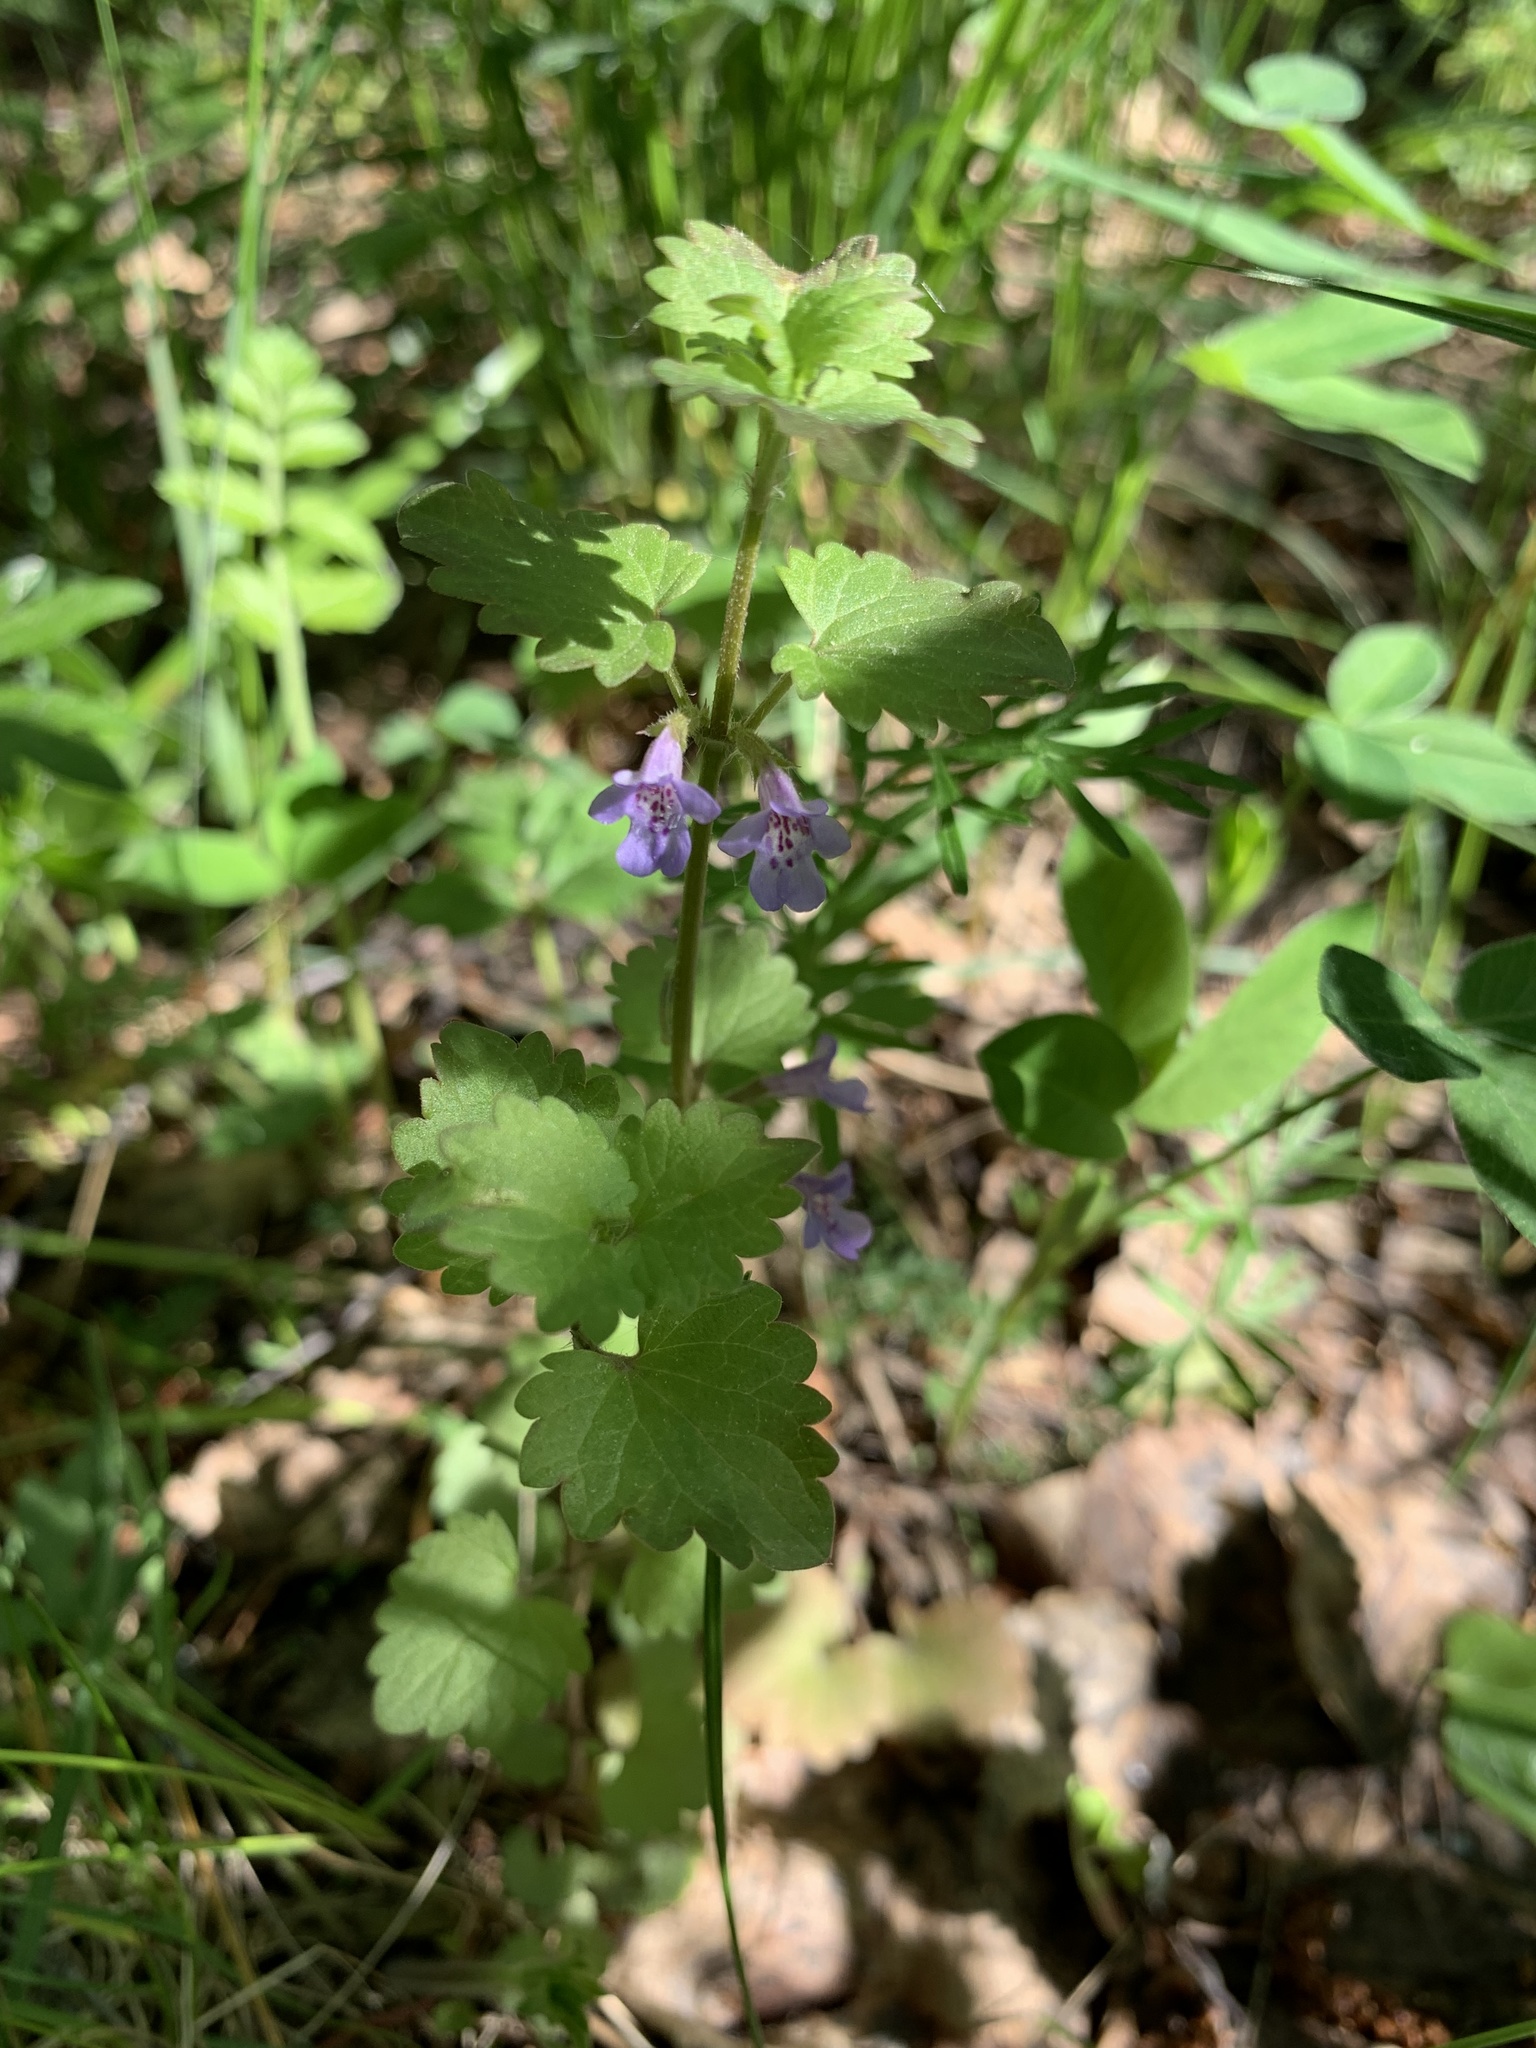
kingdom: Plantae
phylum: Tracheophyta
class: Magnoliopsida
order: Lamiales
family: Lamiaceae
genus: Glechoma
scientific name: Glechoma hederacea
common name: Ground ivy
